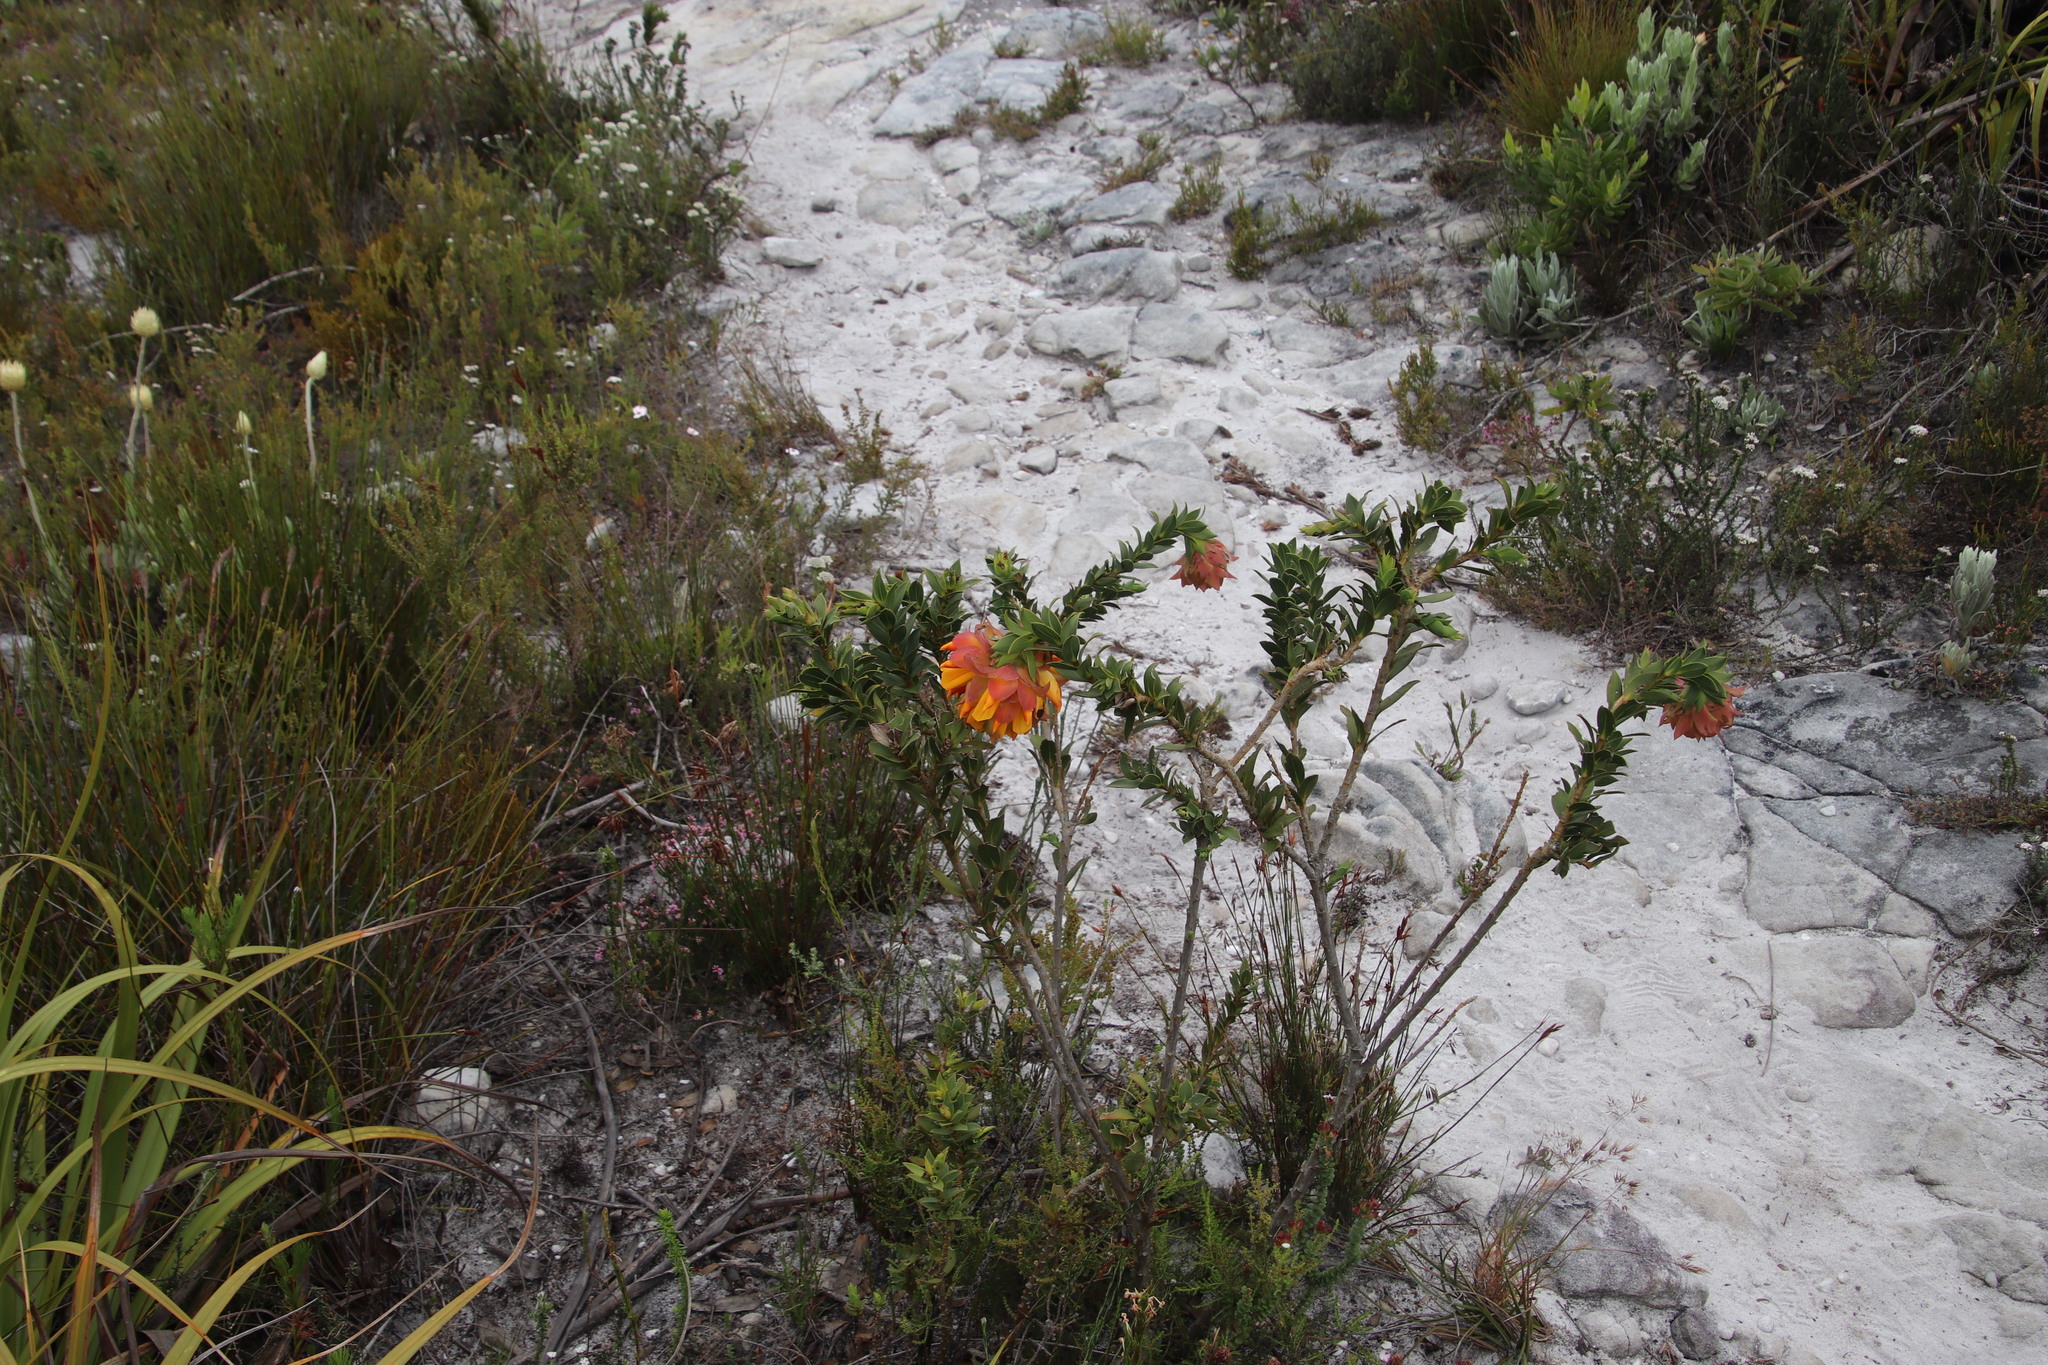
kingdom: Plantae
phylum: Tracheophyta
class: Magnoliopsida
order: Fabales
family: Fabaceae
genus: Liparia
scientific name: Liparia splendens
